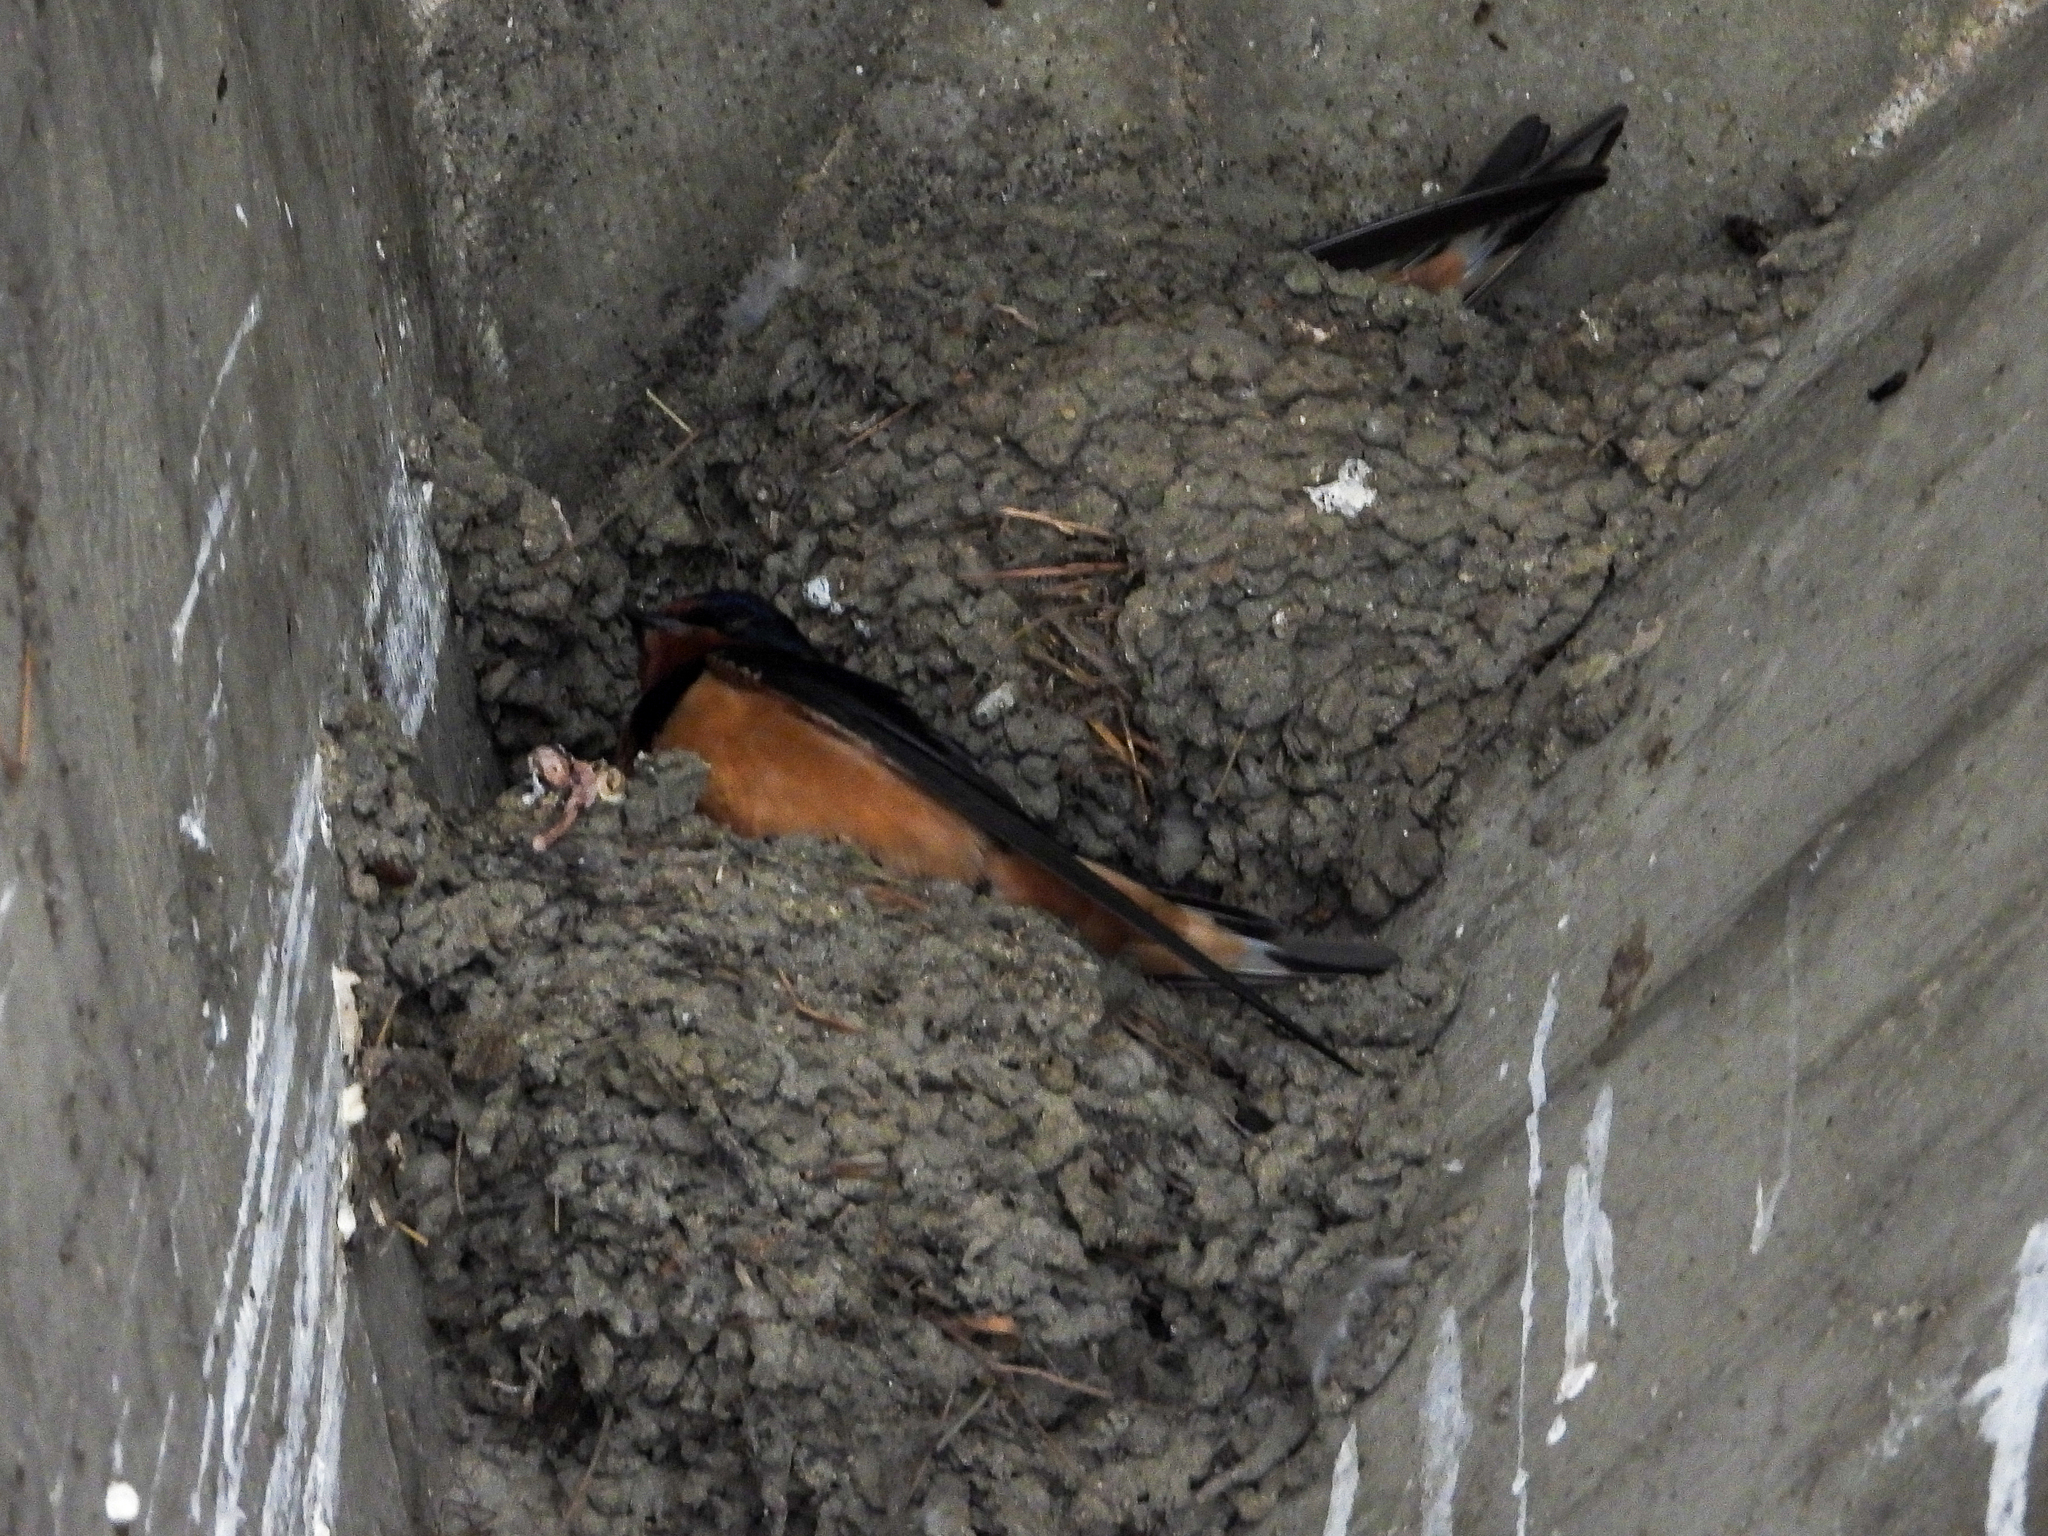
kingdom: Animalia
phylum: Chordata
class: Aves
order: Passeriformes
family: Hirundinidae
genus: Hirundo
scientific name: Hirundo rustica
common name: Barn swallow
